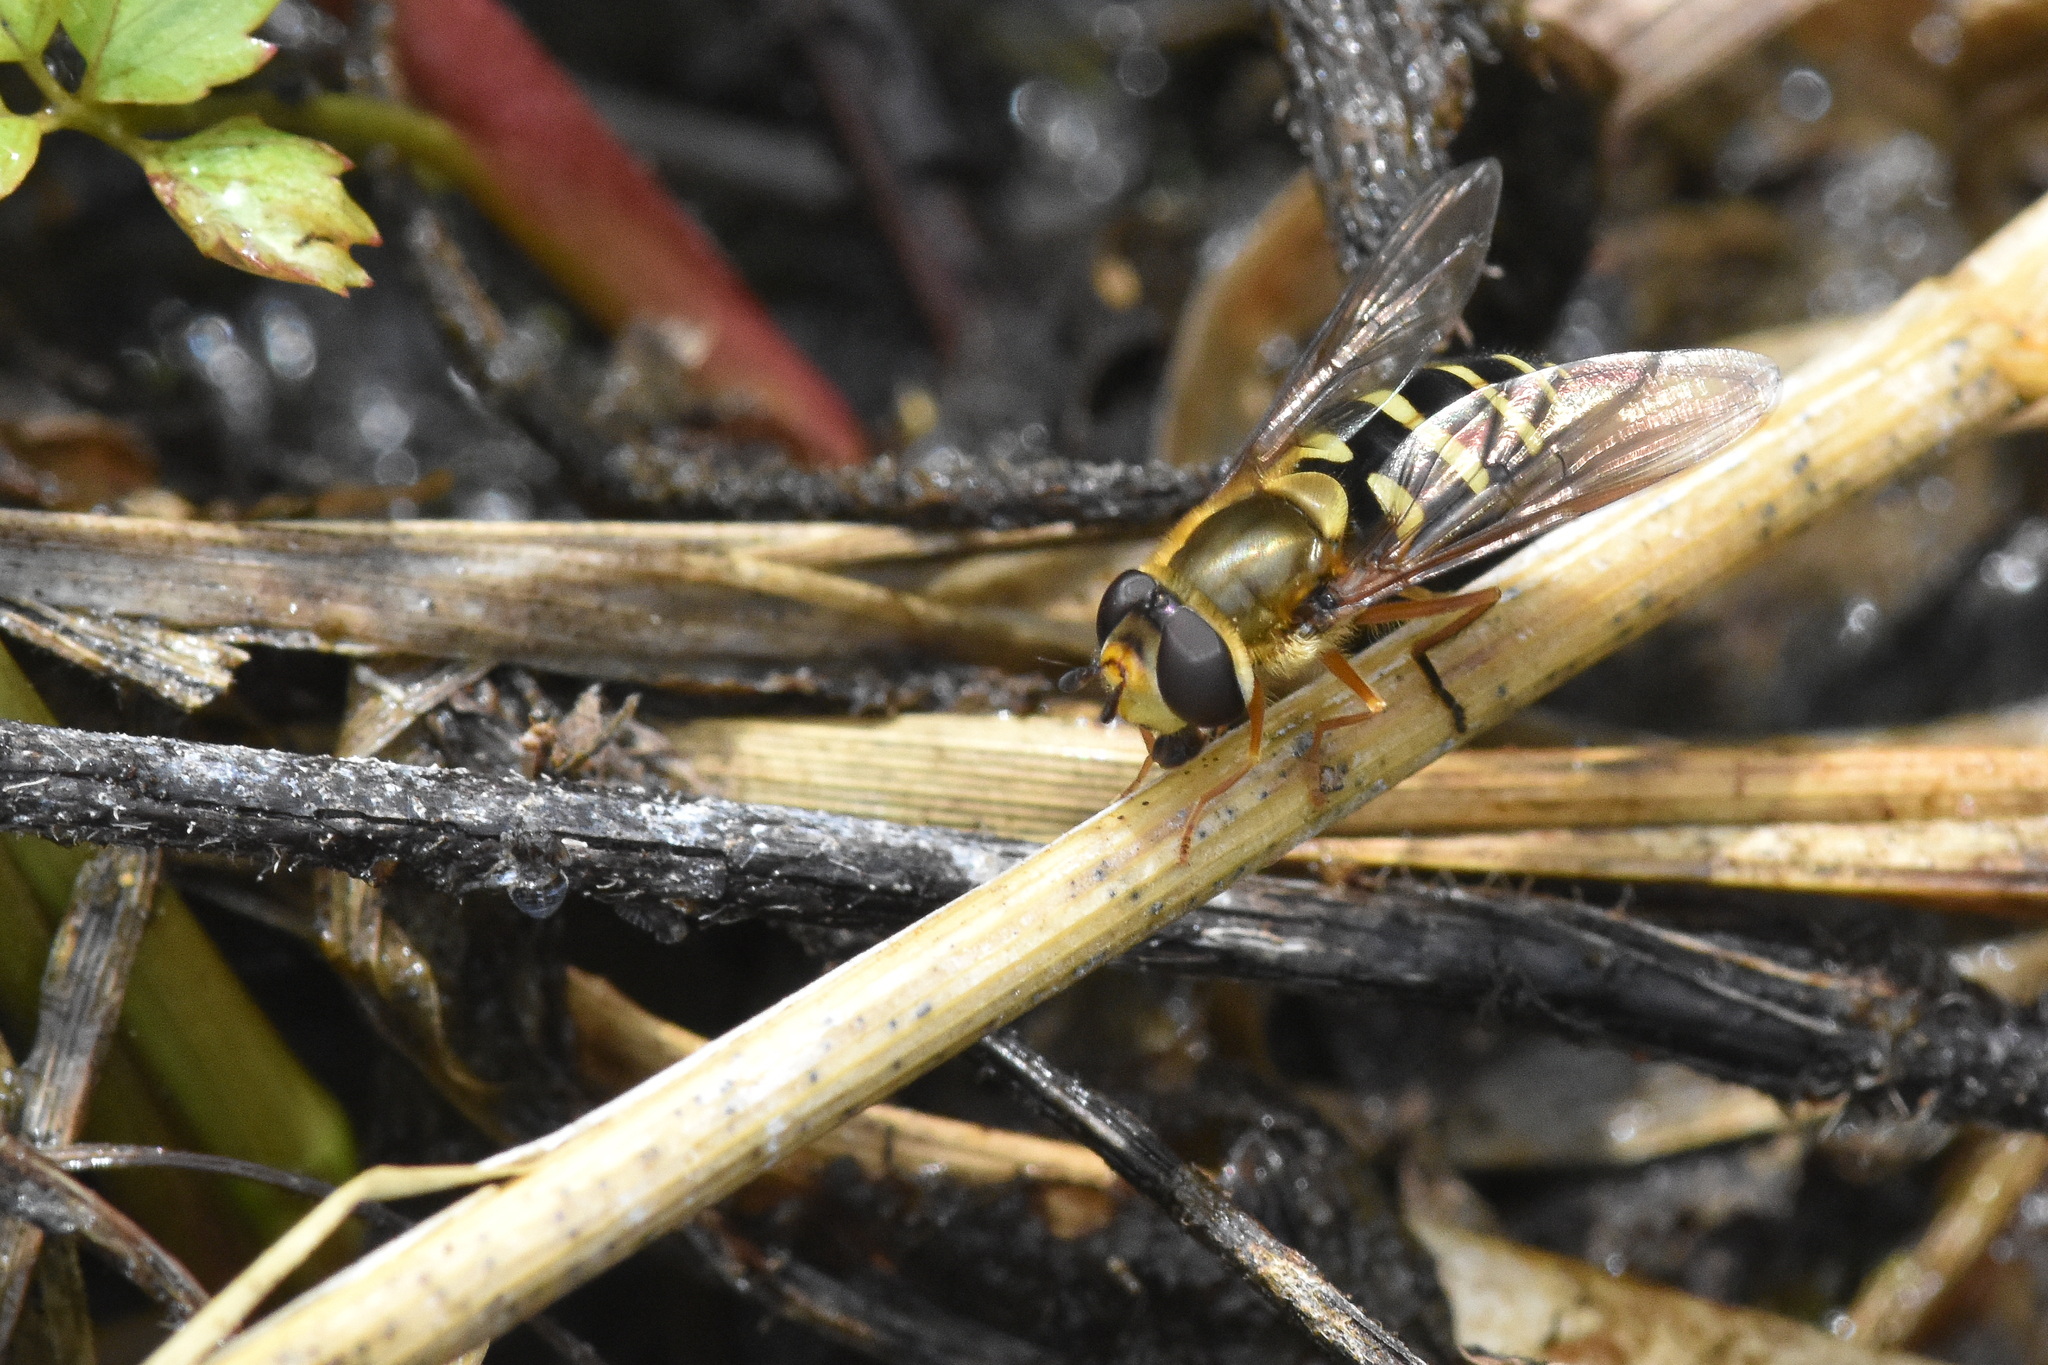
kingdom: Animalia
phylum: Arthropoda
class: Insecta
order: Diptera
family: Syrphidae
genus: Syrphus
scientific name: Syrphus opinator
